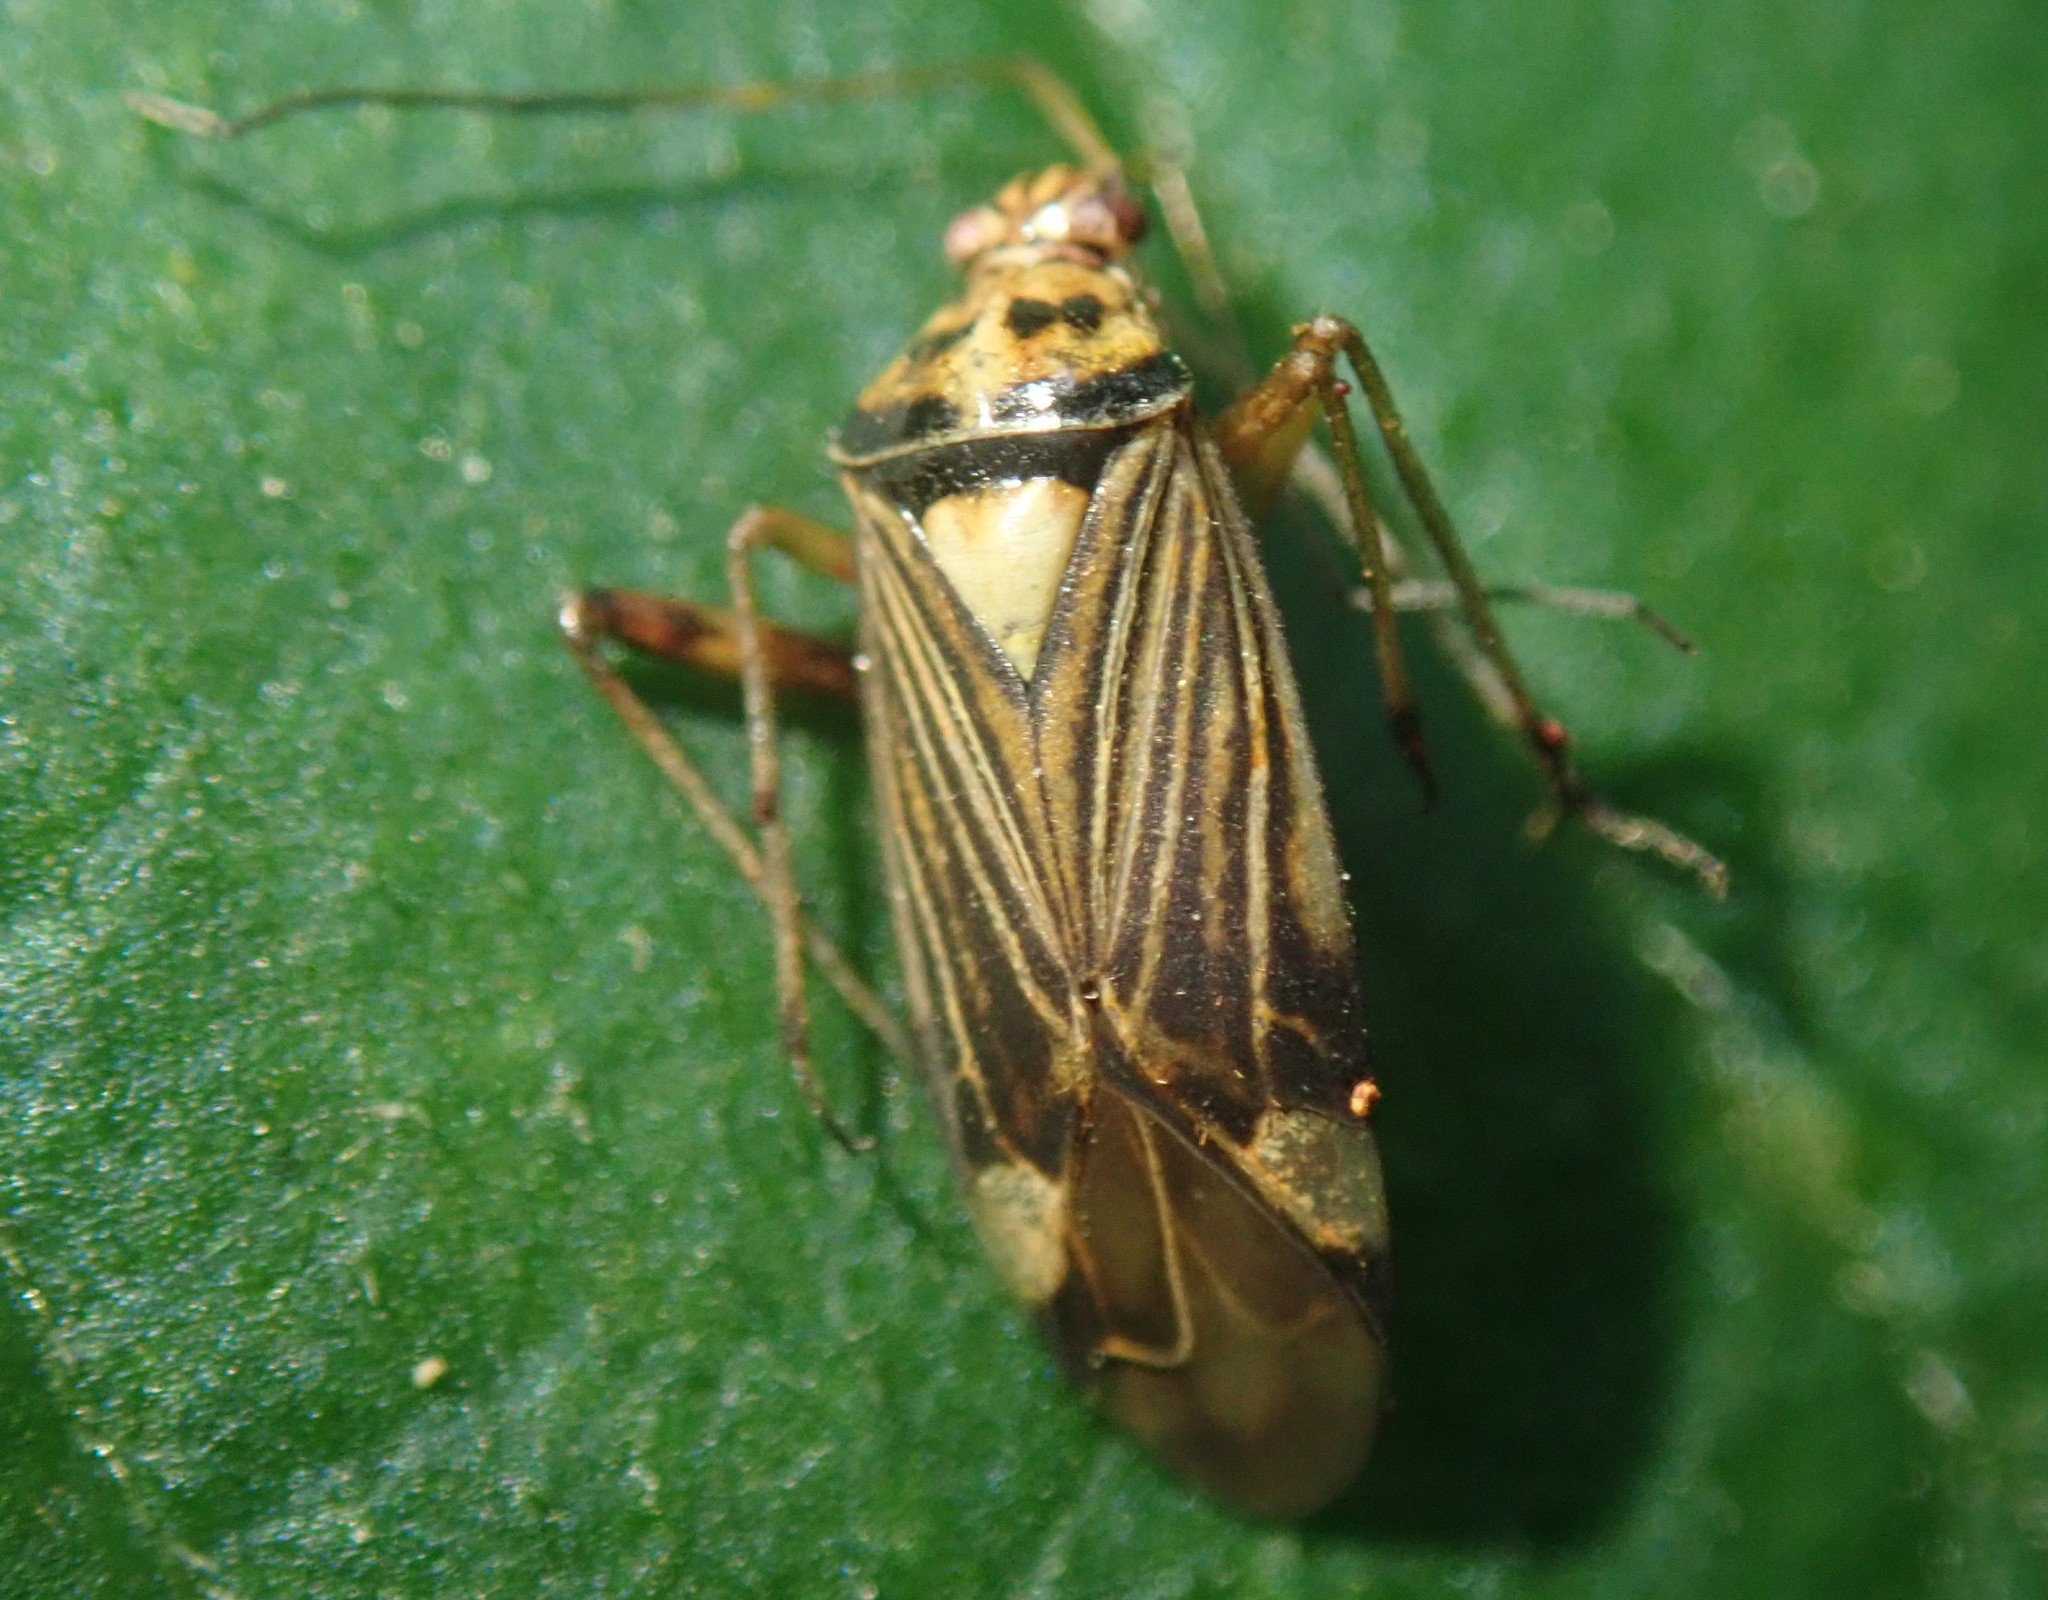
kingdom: Animalia
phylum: Arthropoda
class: Insecta
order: Hemiptera
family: Miridae
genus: Rhabdomiris
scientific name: Rhabdomiris striatellus
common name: Plant bug
